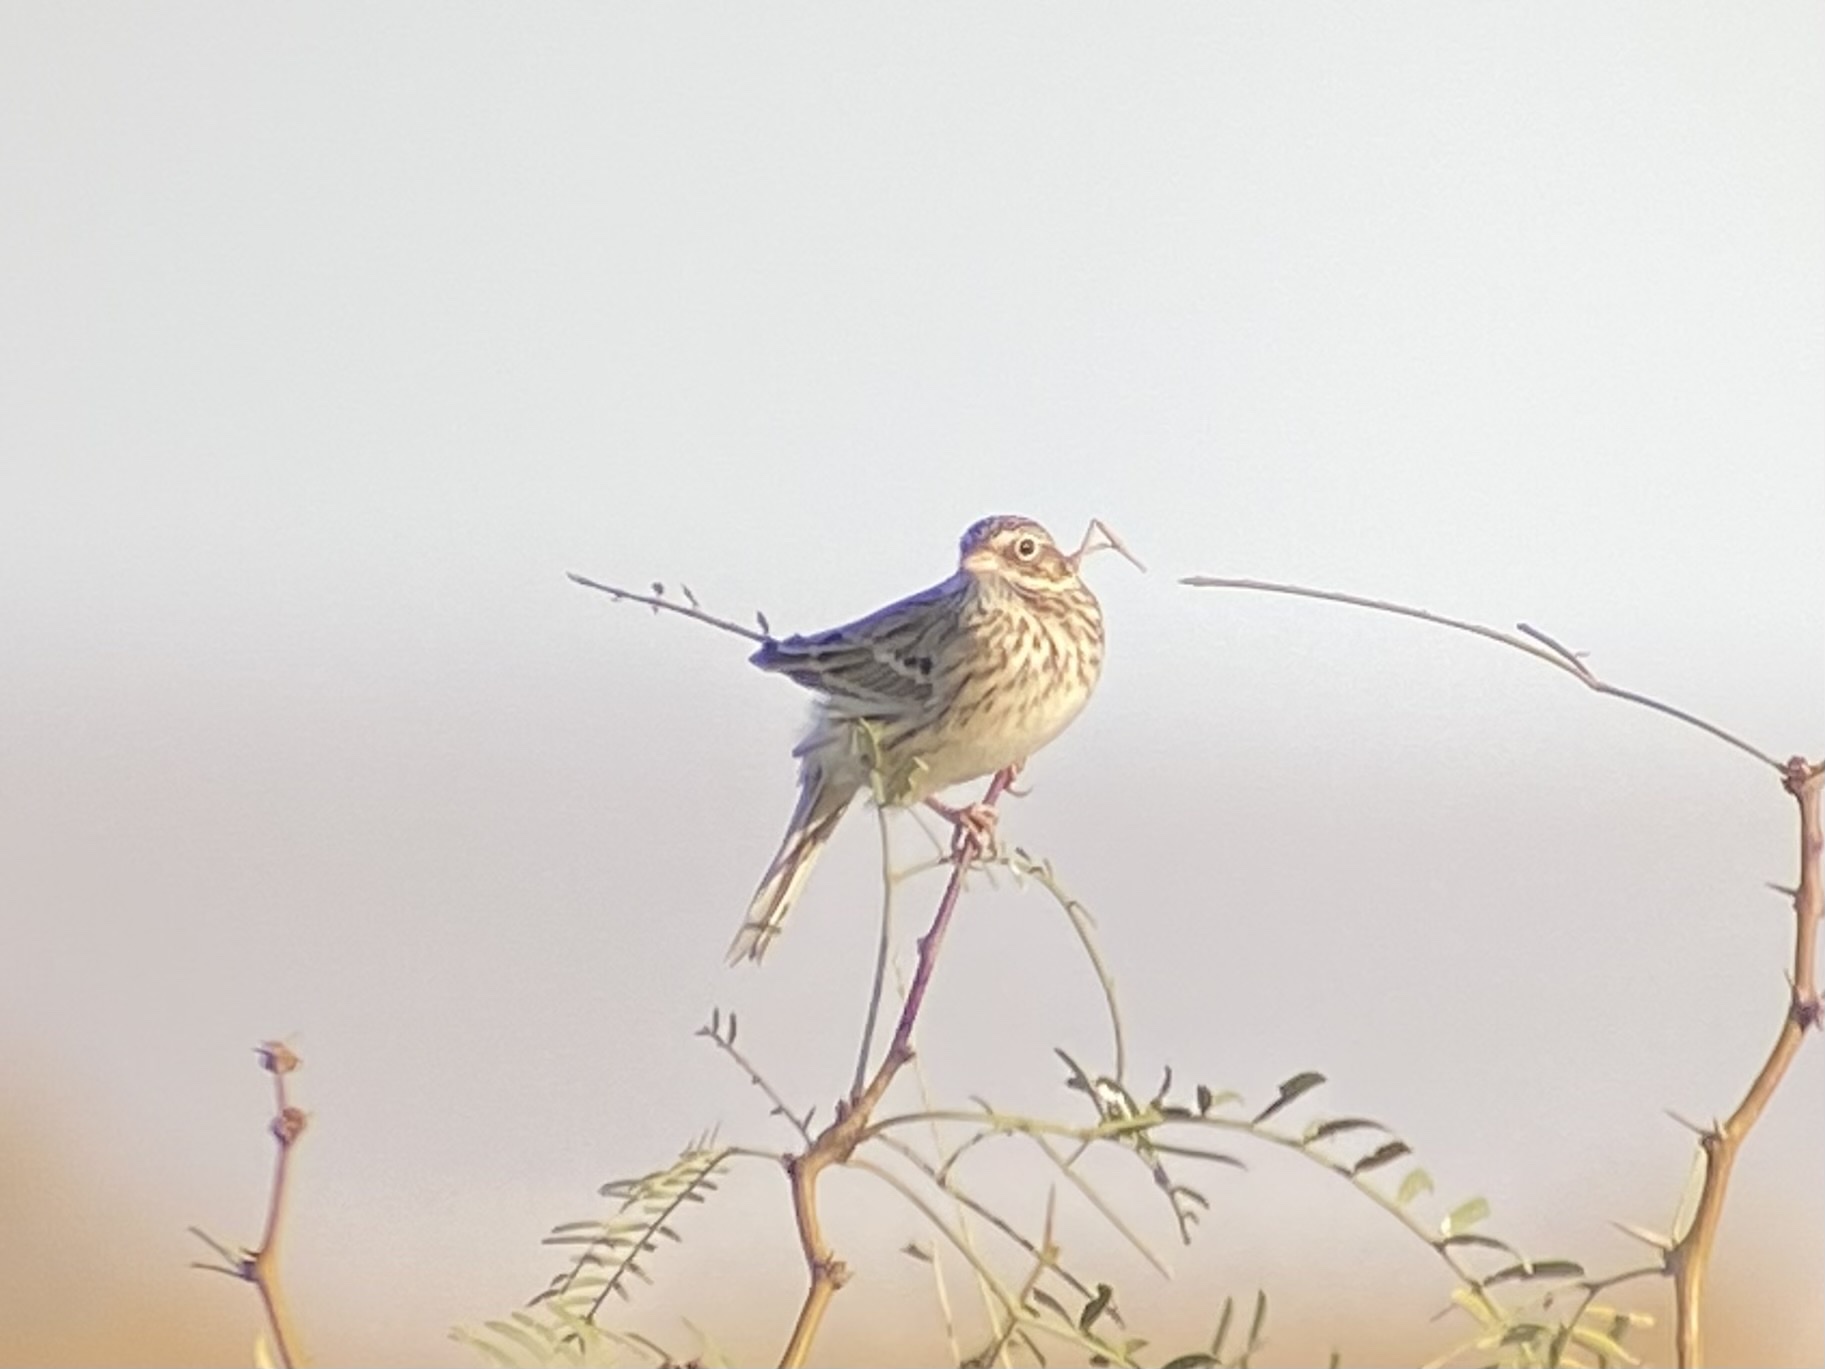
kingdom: Animalia
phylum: Chordata
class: Aves
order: Passeriformes
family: Passerellidae
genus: Pooecetes
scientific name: Pooecetes gramineus
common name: Vesper sparrow
